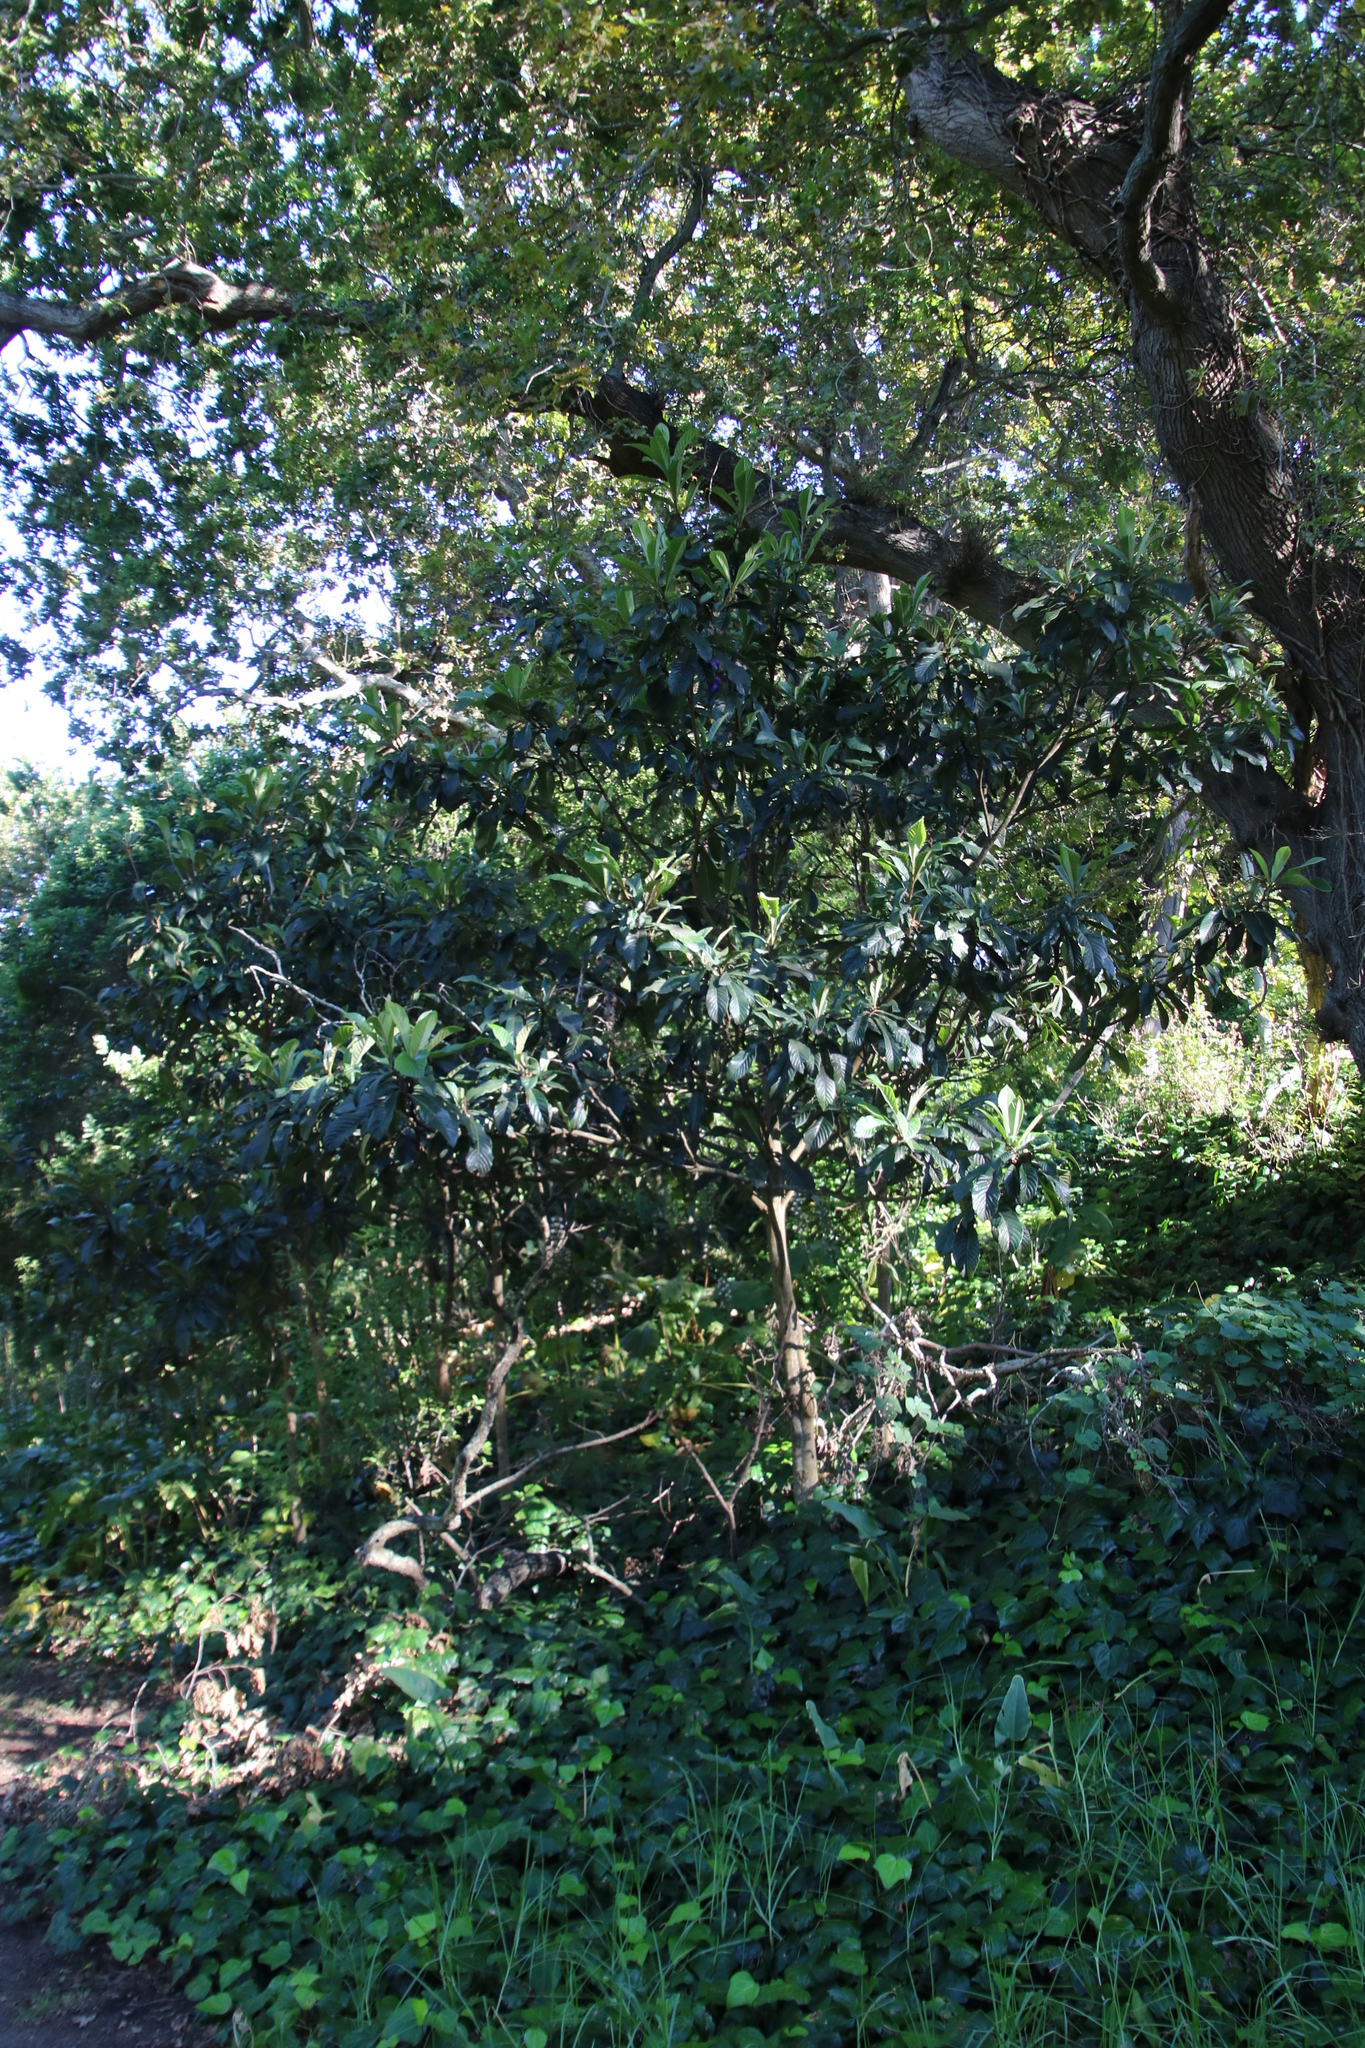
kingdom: Plantae
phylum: Tracheophyta
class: Magnoliopsida
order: Rosales
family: Rosaceae
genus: Rhaphiolepis
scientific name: Rhaphiolepis bibas
